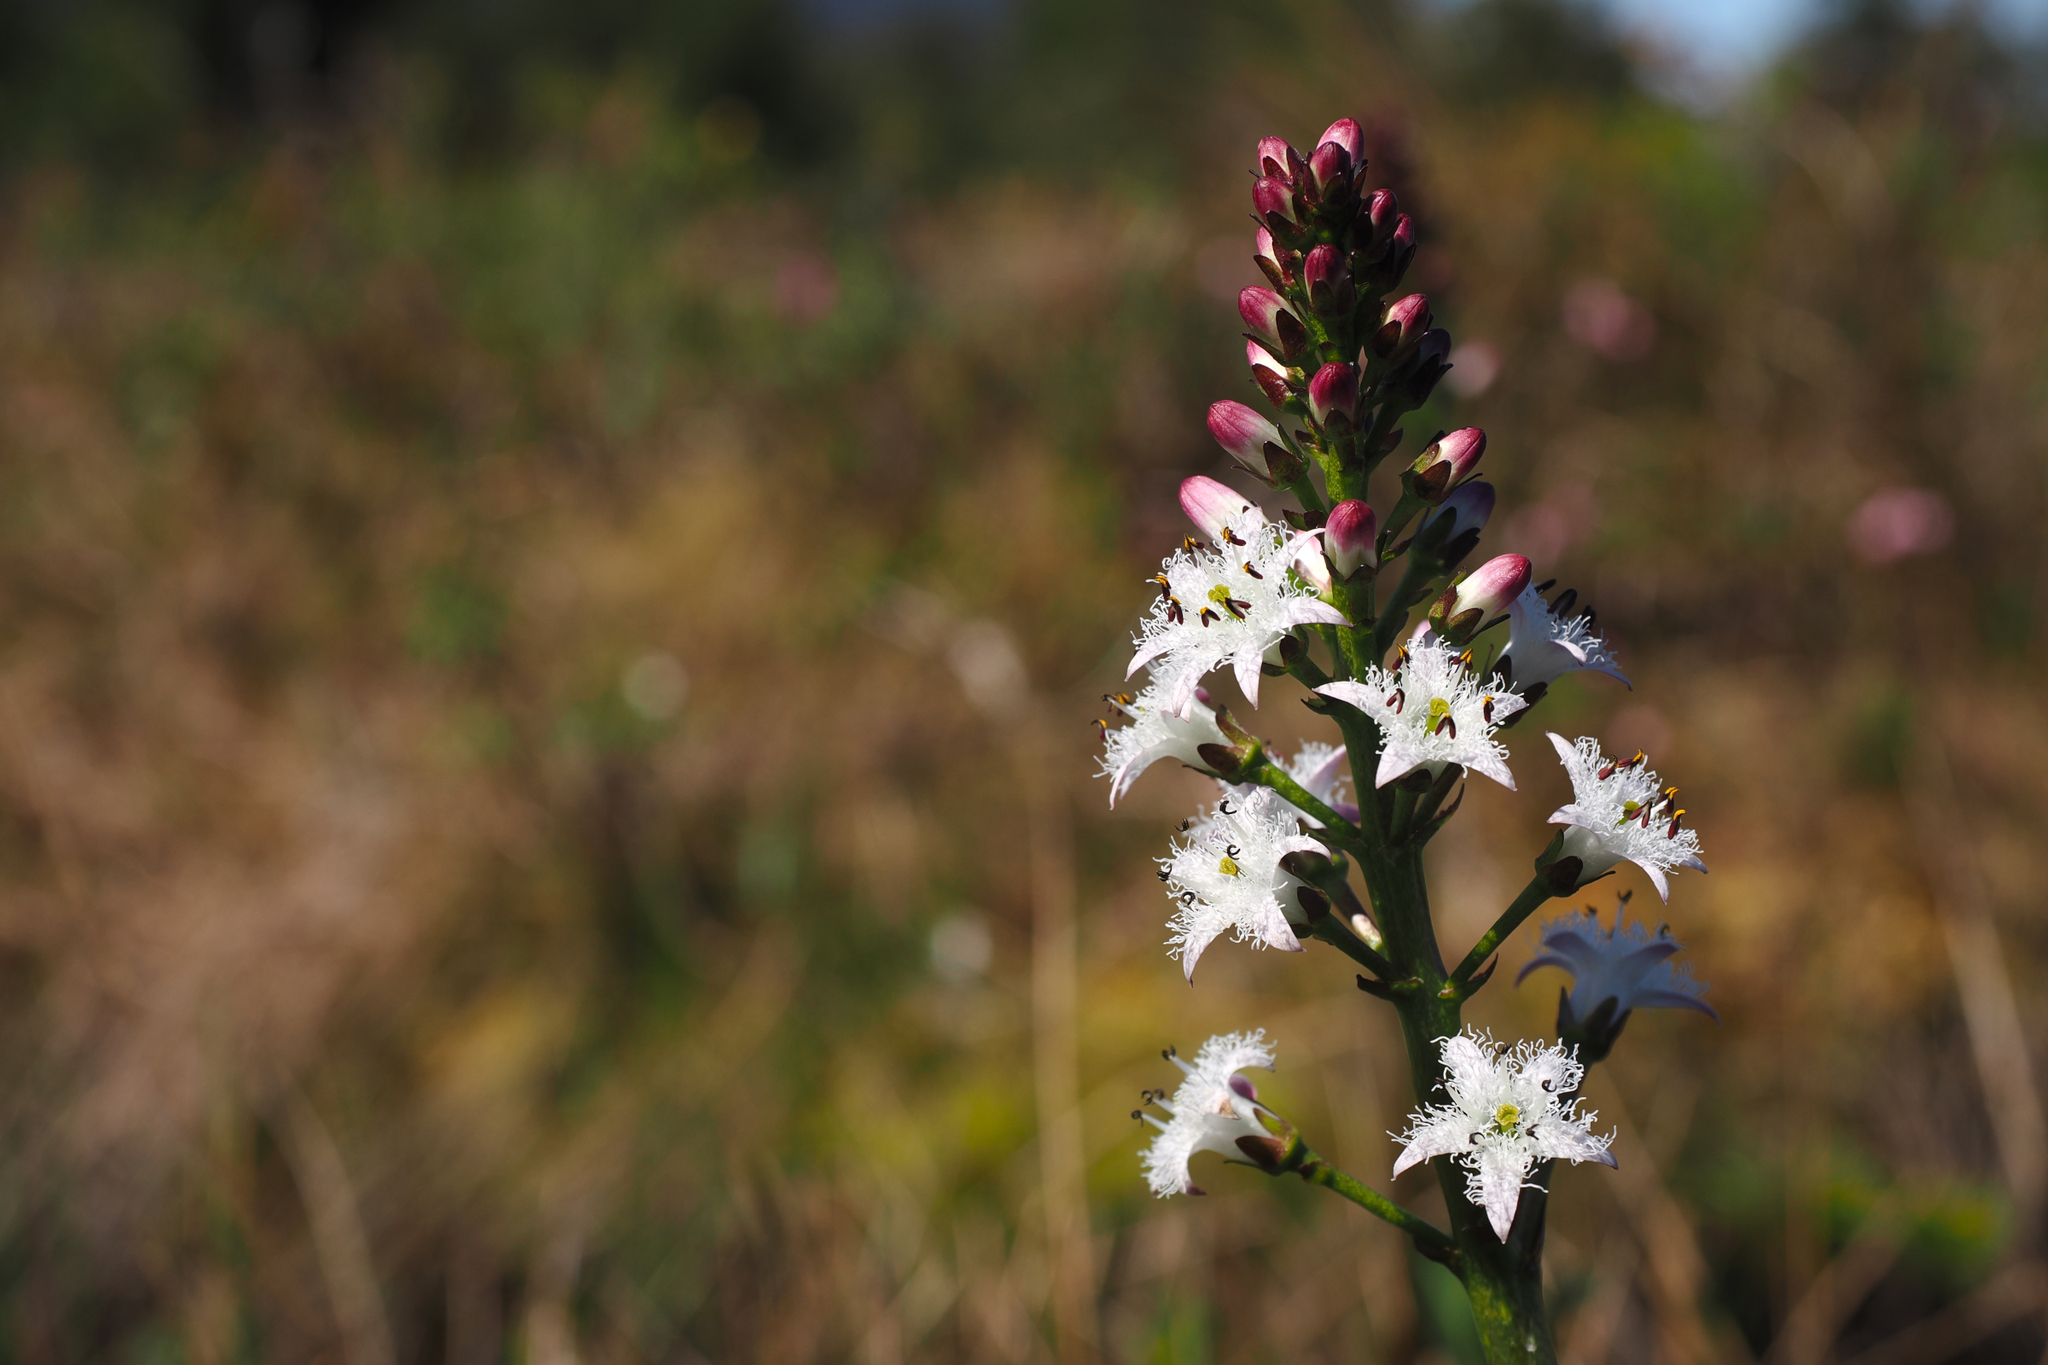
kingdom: Plantae
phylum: Tracheophyta
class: Magnoliopsida
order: Asterales
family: Menyanthaceae
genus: Menyanthes
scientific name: Menyanthes trifoliata
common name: Bogbean
